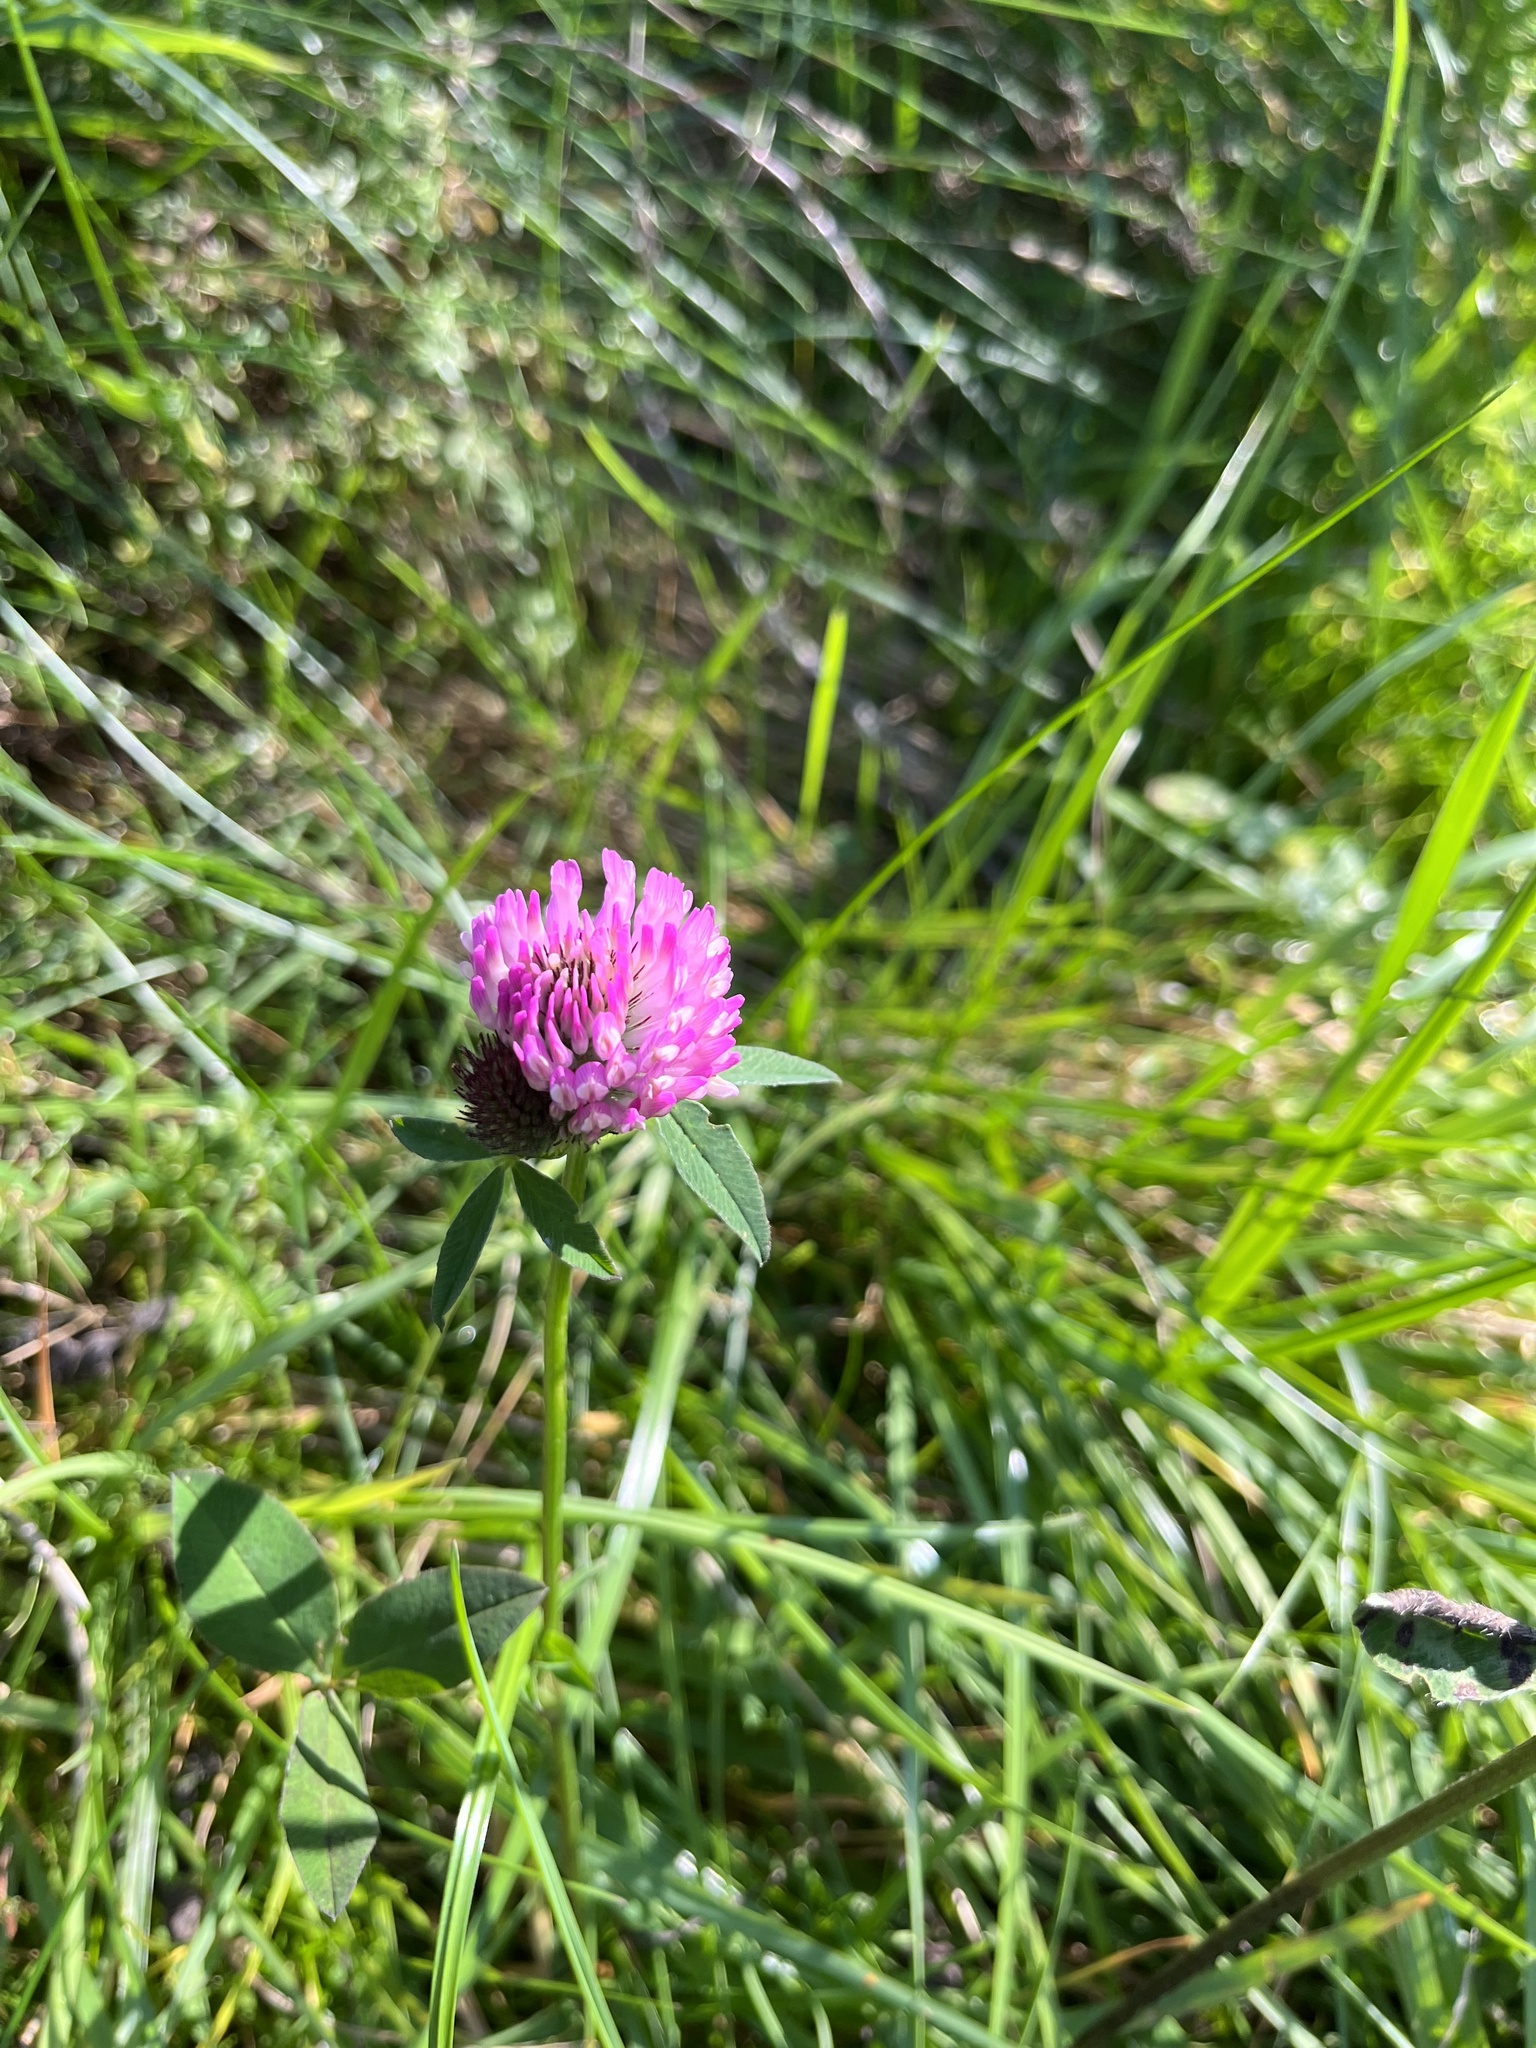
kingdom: Plantae
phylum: Tracheophyta
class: Magnoliopsida
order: Fabales
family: Fabaceae
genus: Trifolium
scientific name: Trifolium pratense
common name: Red clover
